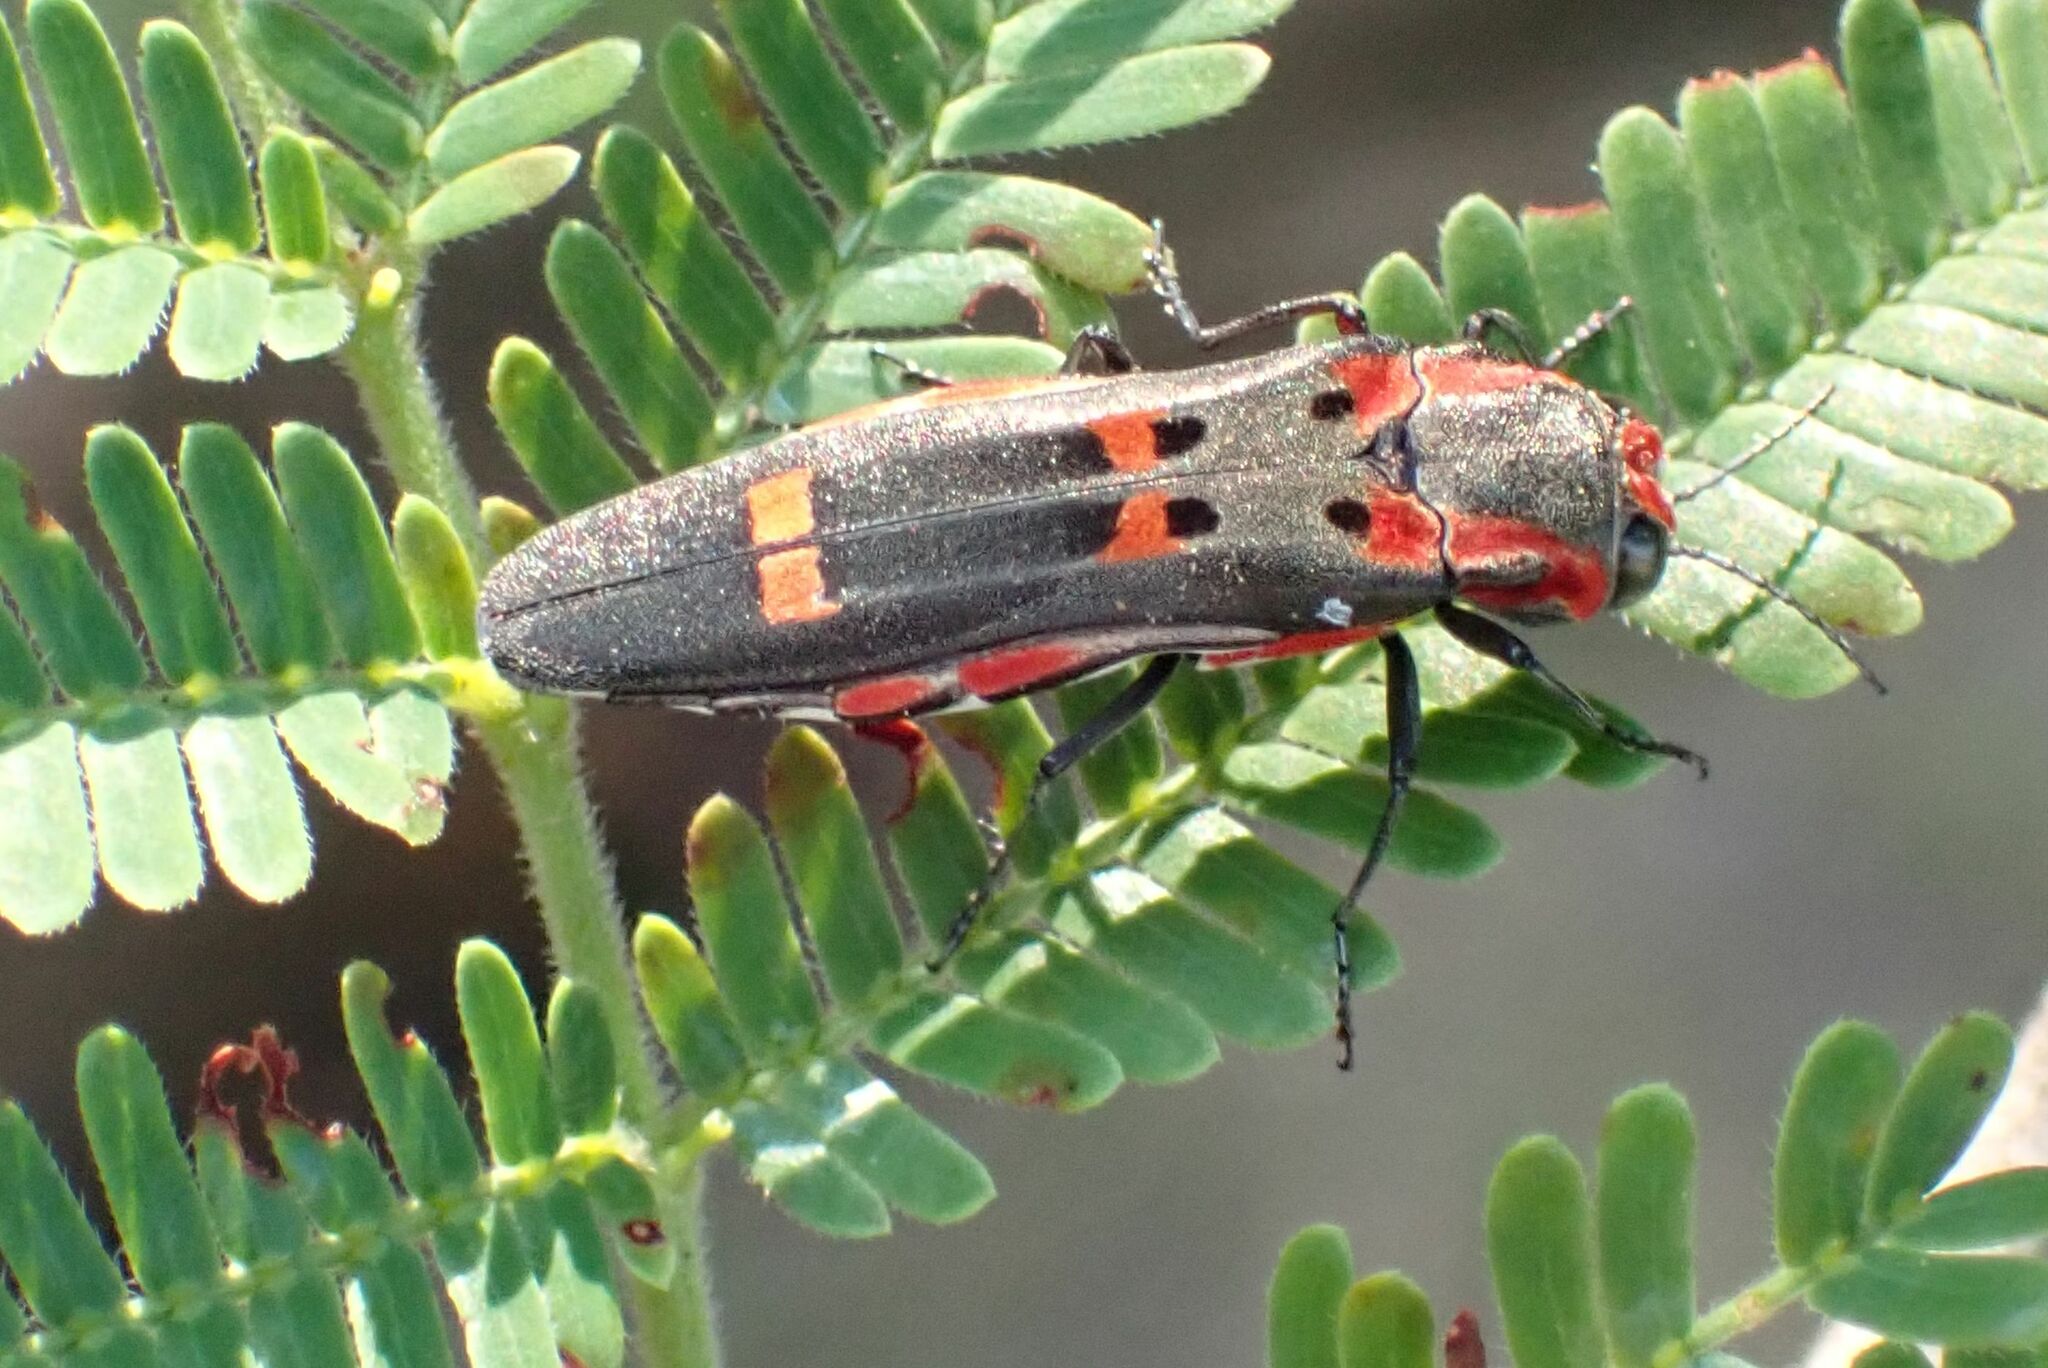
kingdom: Animalia
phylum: Arthropoda
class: Insecta
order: Coleoptera
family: Buprestidae
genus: Agrilus
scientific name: Agrilus sexguttatus
